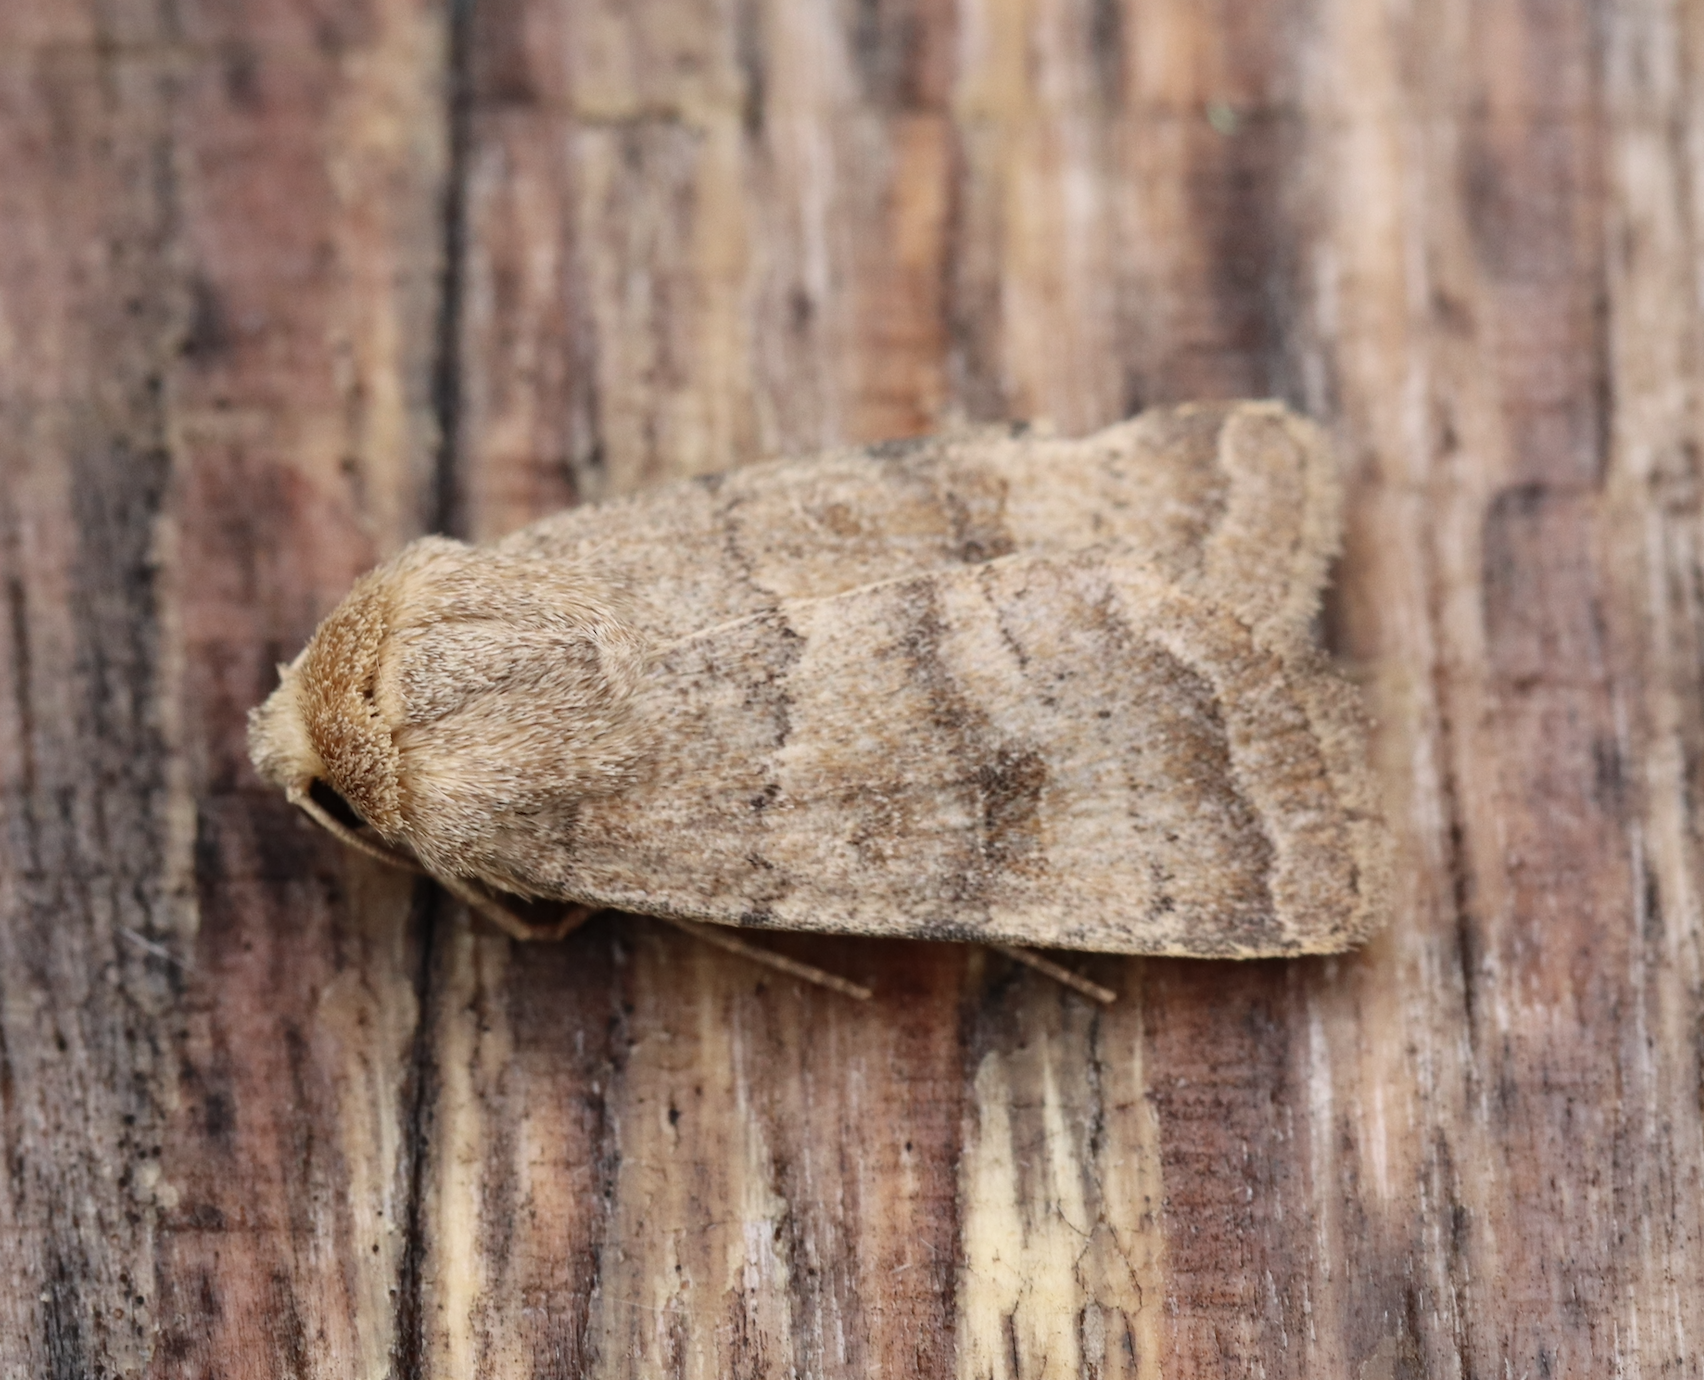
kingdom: Animalia
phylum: Arthropoda
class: Insecta
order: Lepidoptera
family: Noctuidae
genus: Hoplodrina
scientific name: Hoplodrina octogenaria
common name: Uncertain
